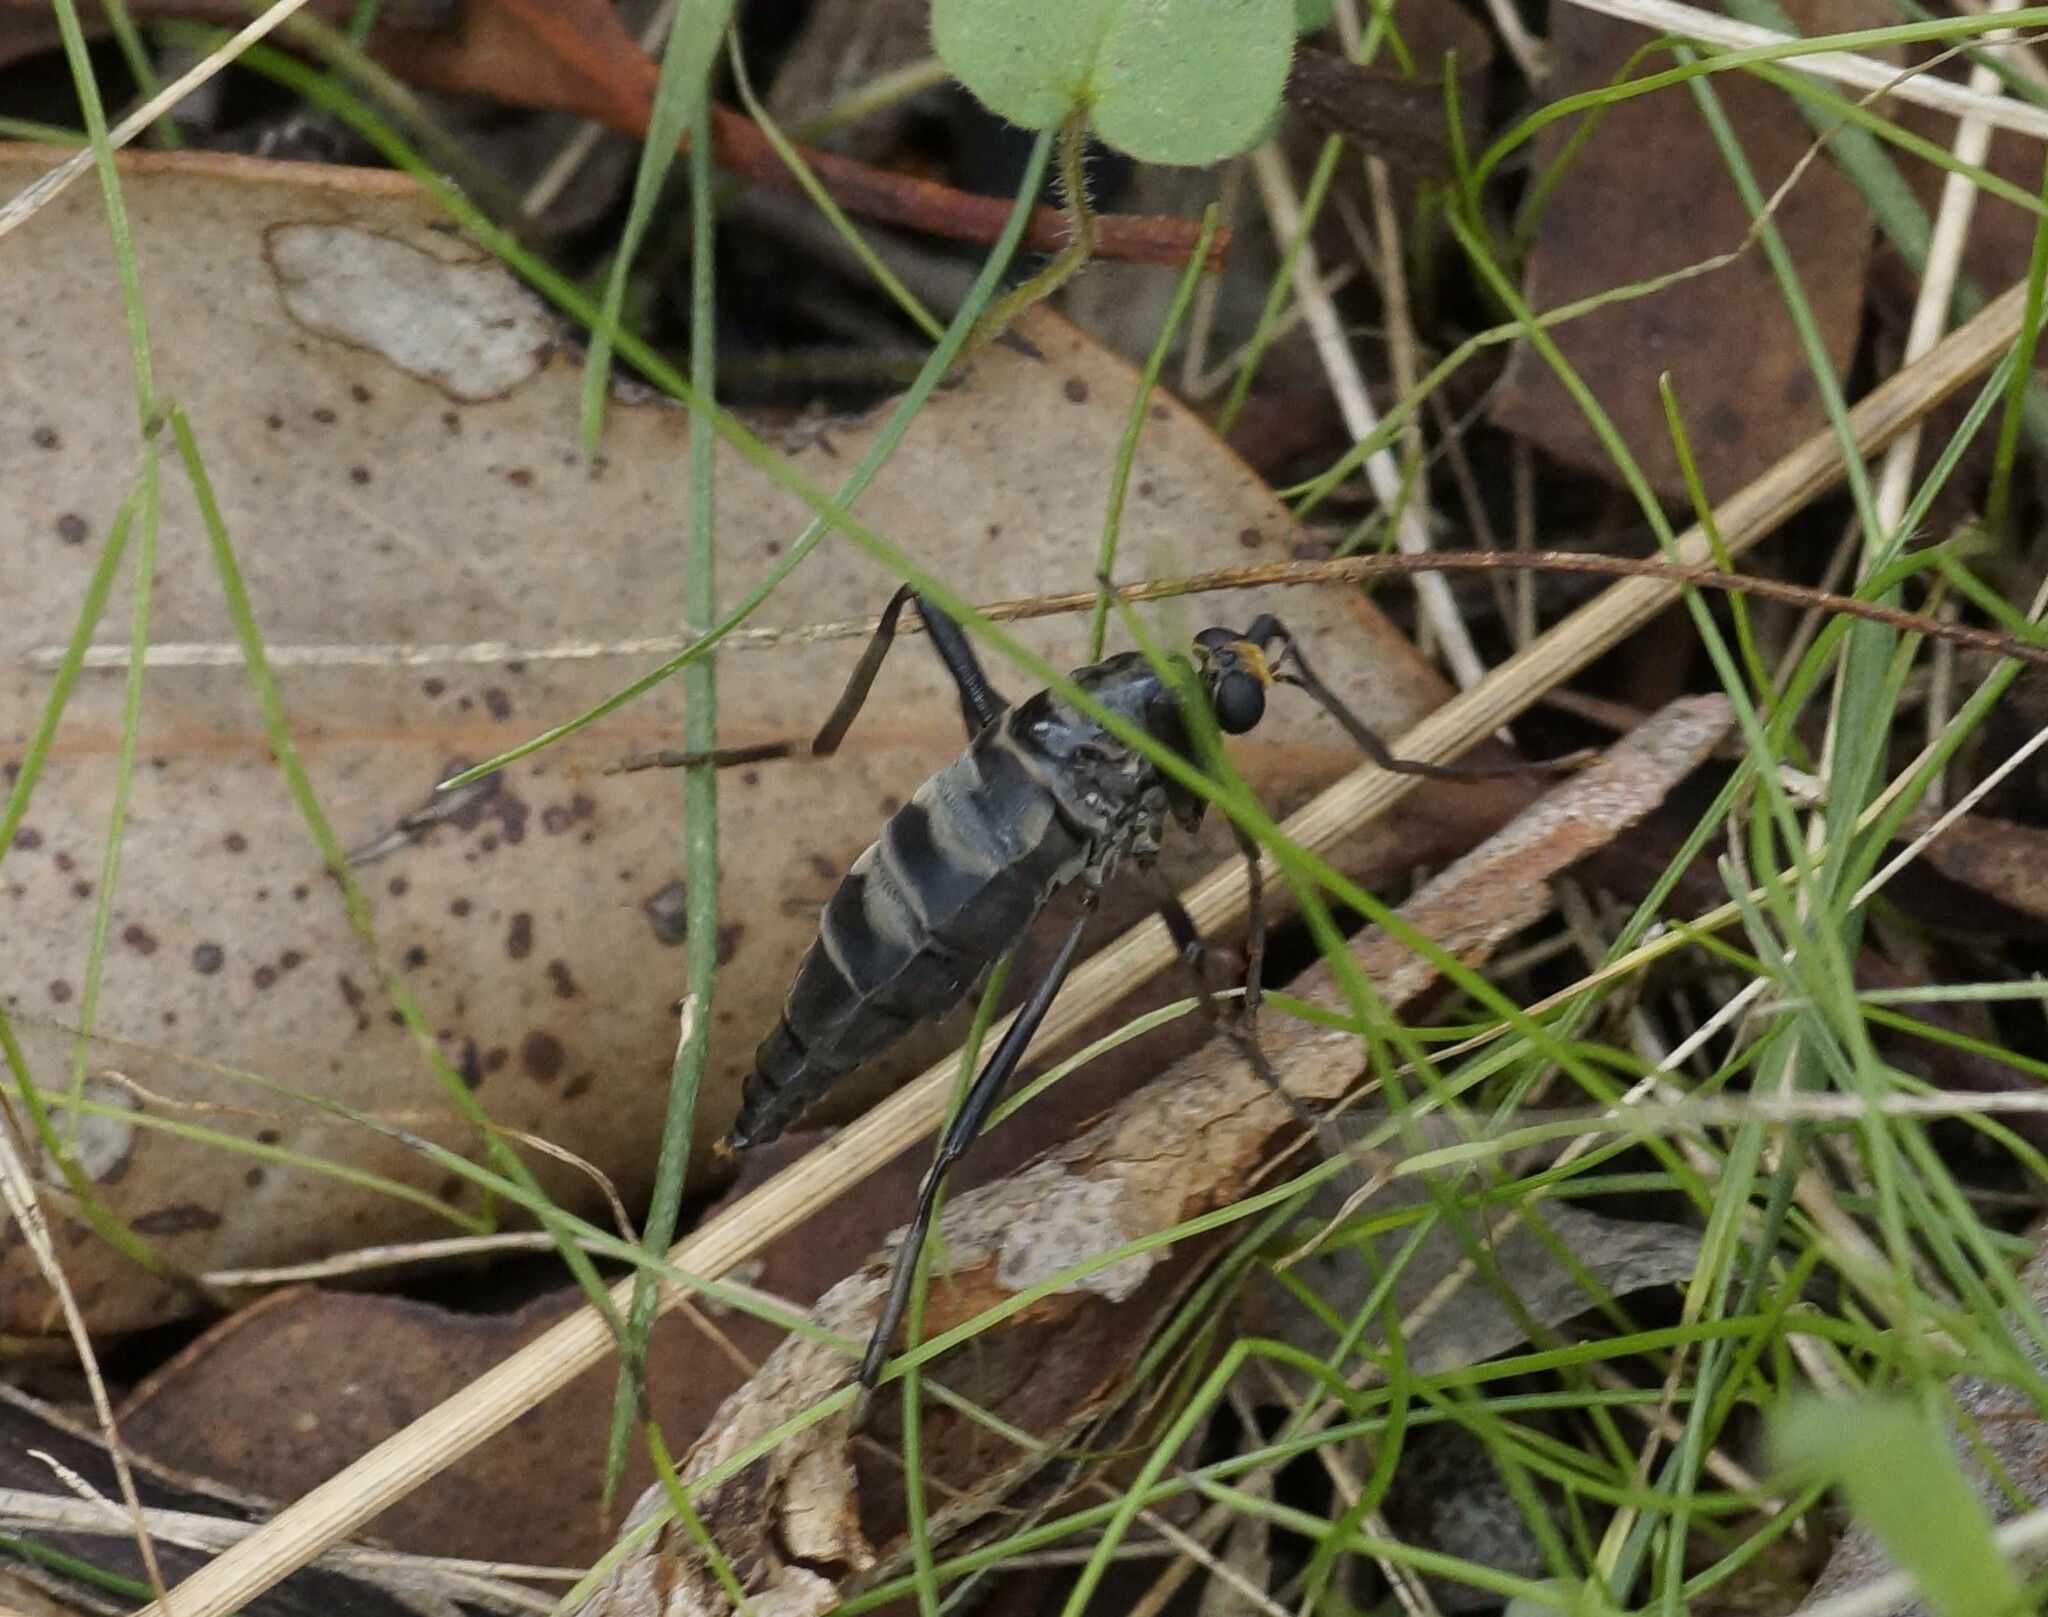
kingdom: Animalia
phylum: Arthropoda
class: Insecta
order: Diptera
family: Stratiomyidae
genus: Boreoides
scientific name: Boreoides subulatus
